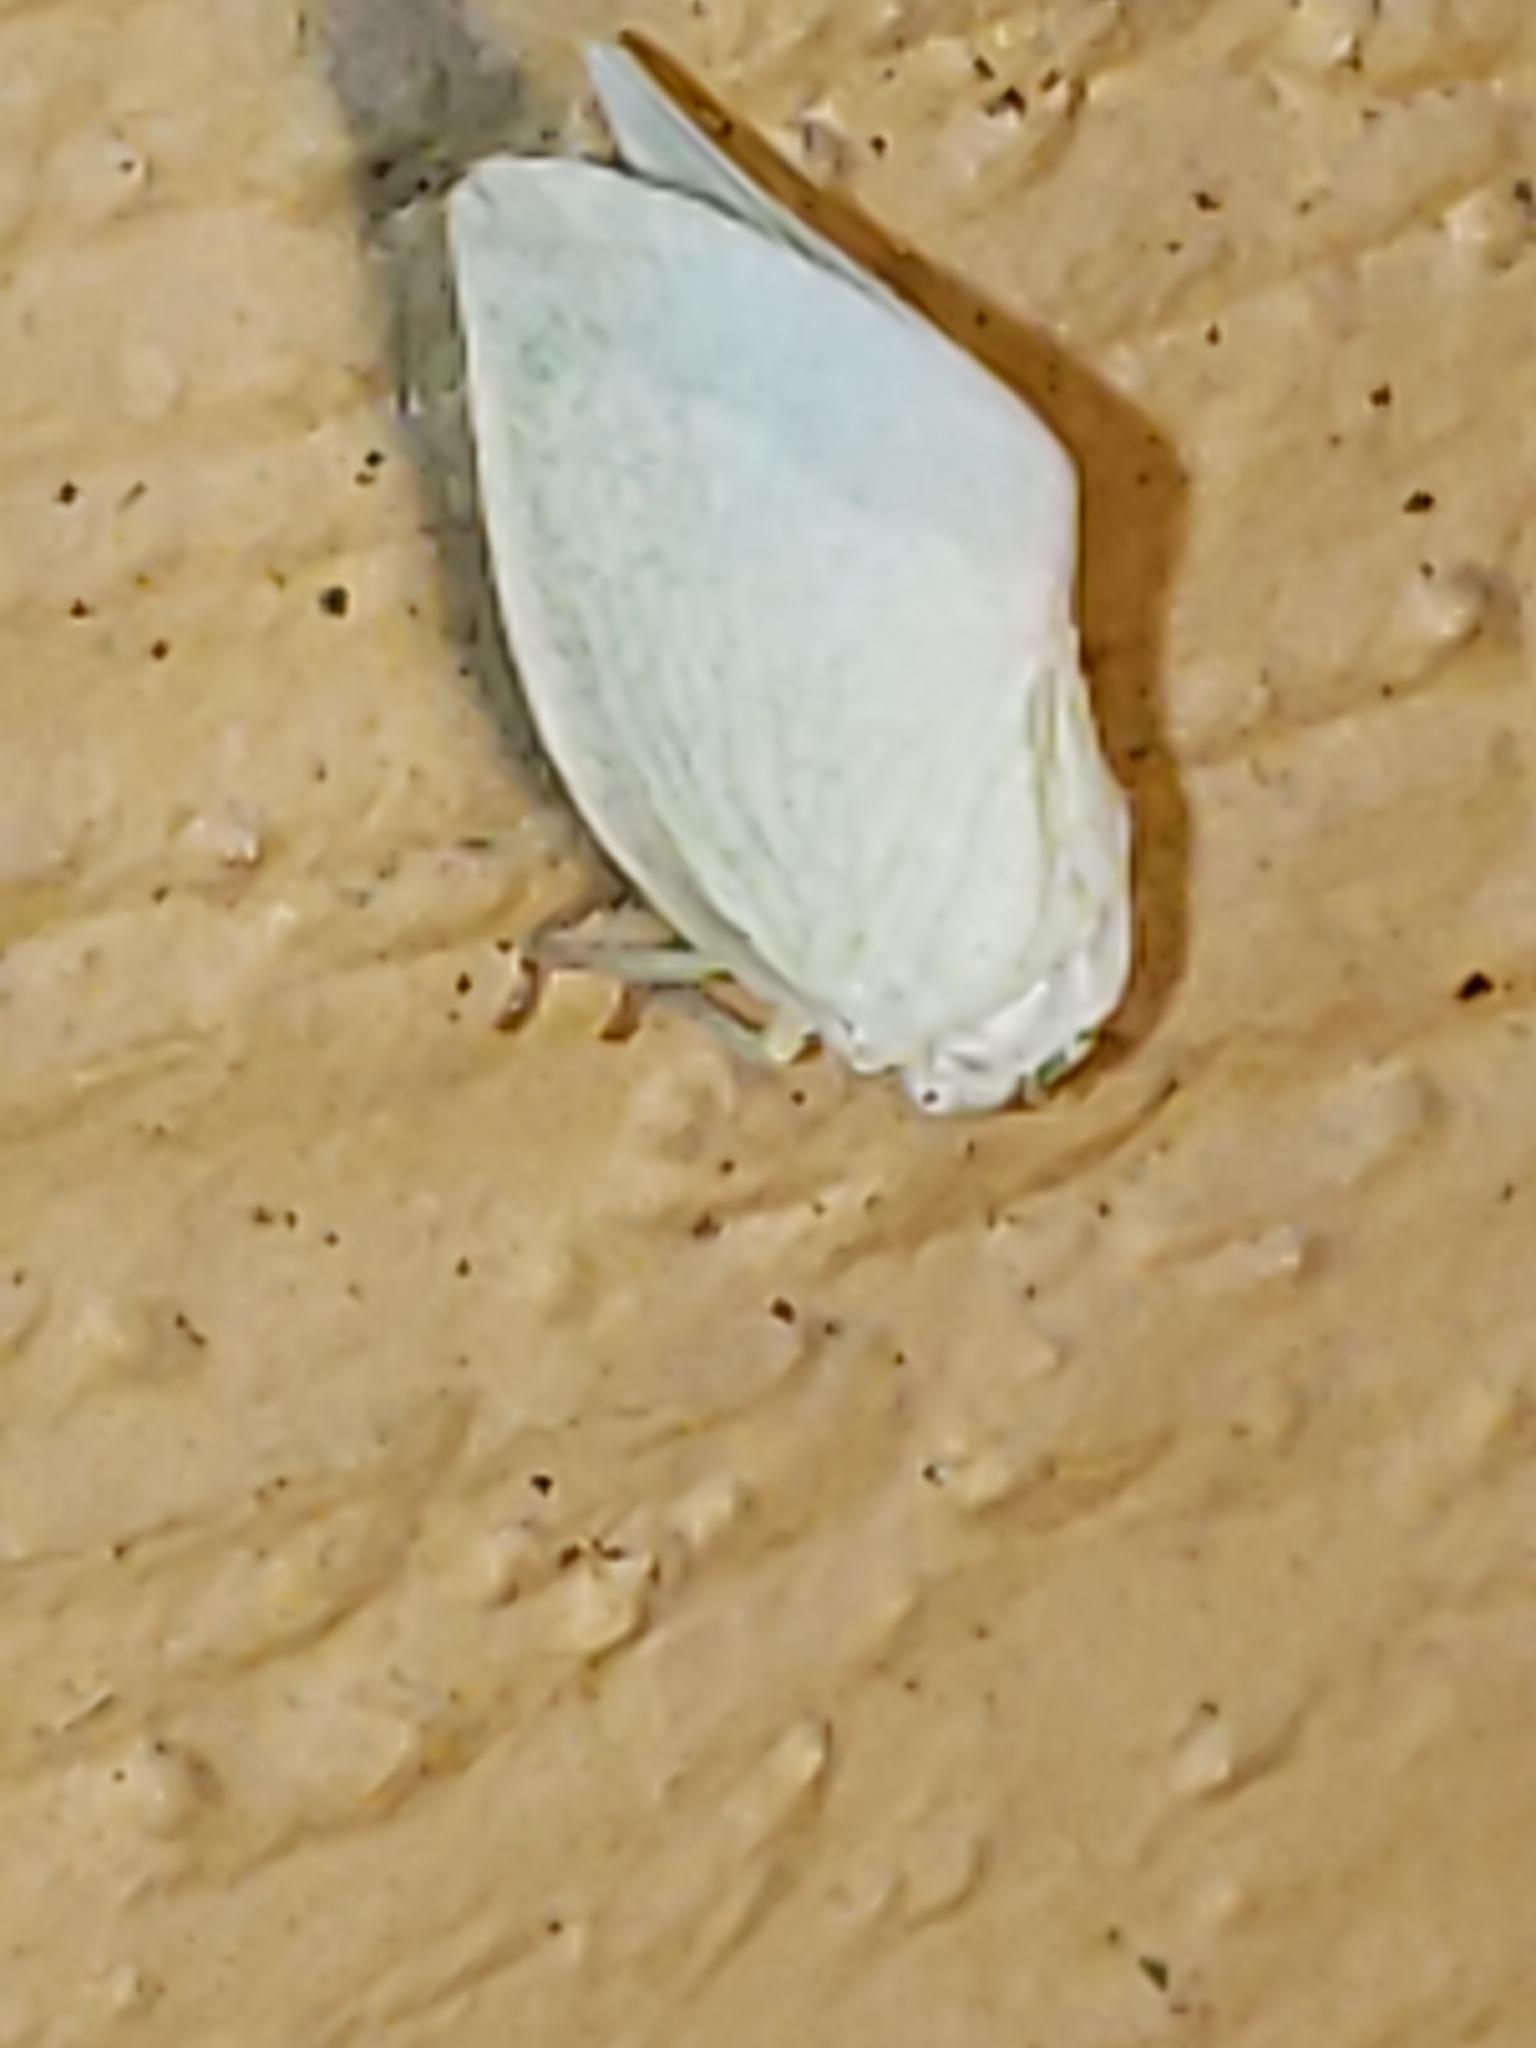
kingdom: Animalia
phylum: Arthropoda
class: Insecta
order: Hemiptera
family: Flatidae
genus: Flatormenis
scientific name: Flatormenis proxima
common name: Northern flatid planthopper
